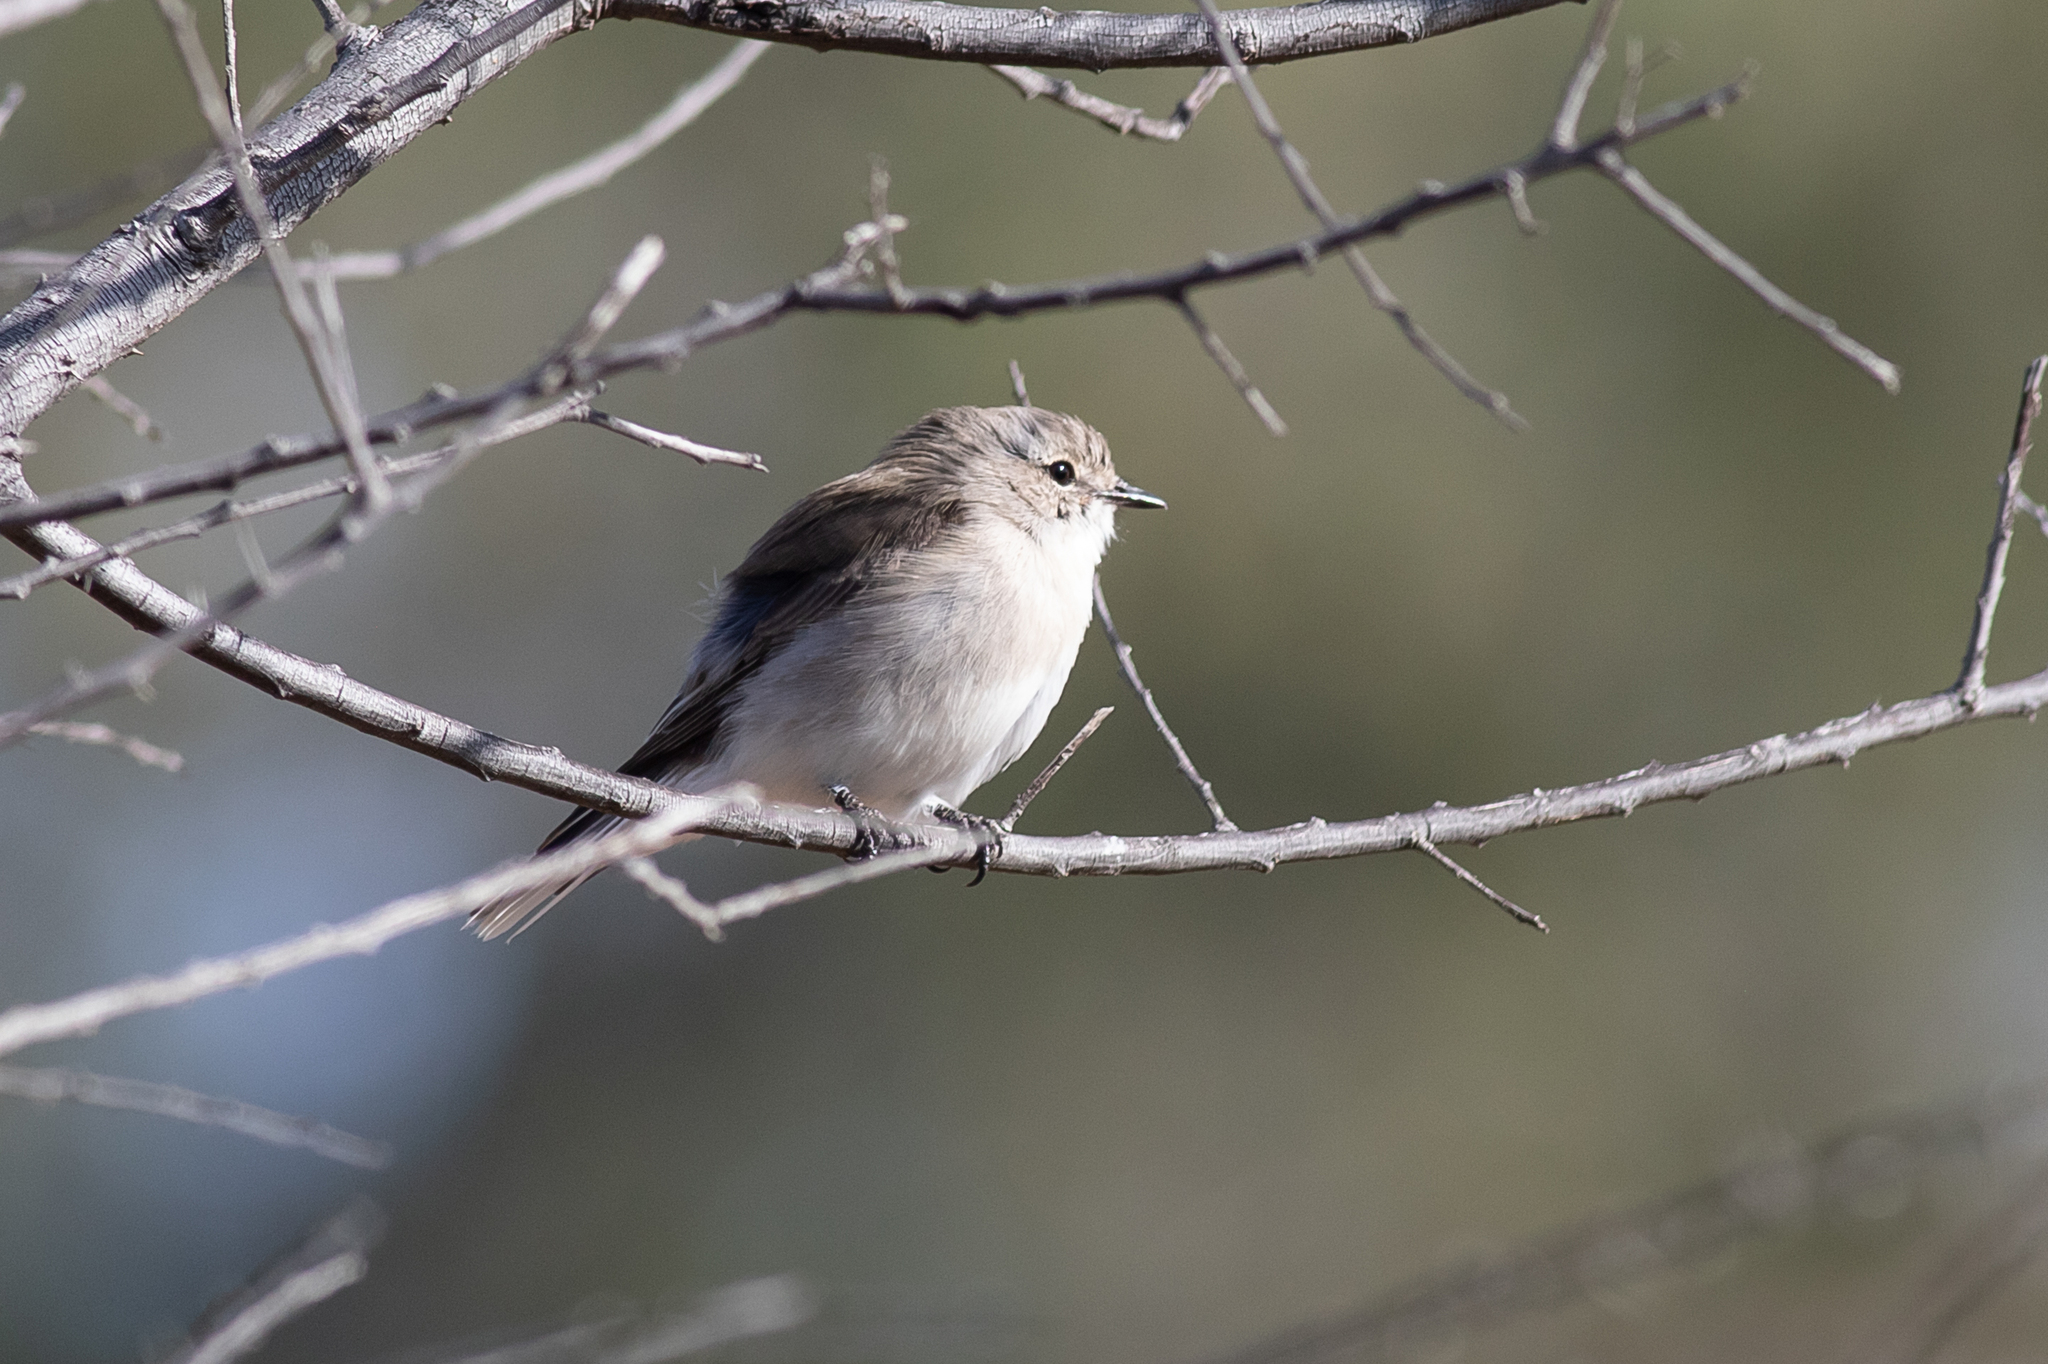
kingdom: Animalia
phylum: Chordata
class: Aves
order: Passeriformes
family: Petroicidae
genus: Microeca
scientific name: Microeca fascinans
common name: Jacky winter
